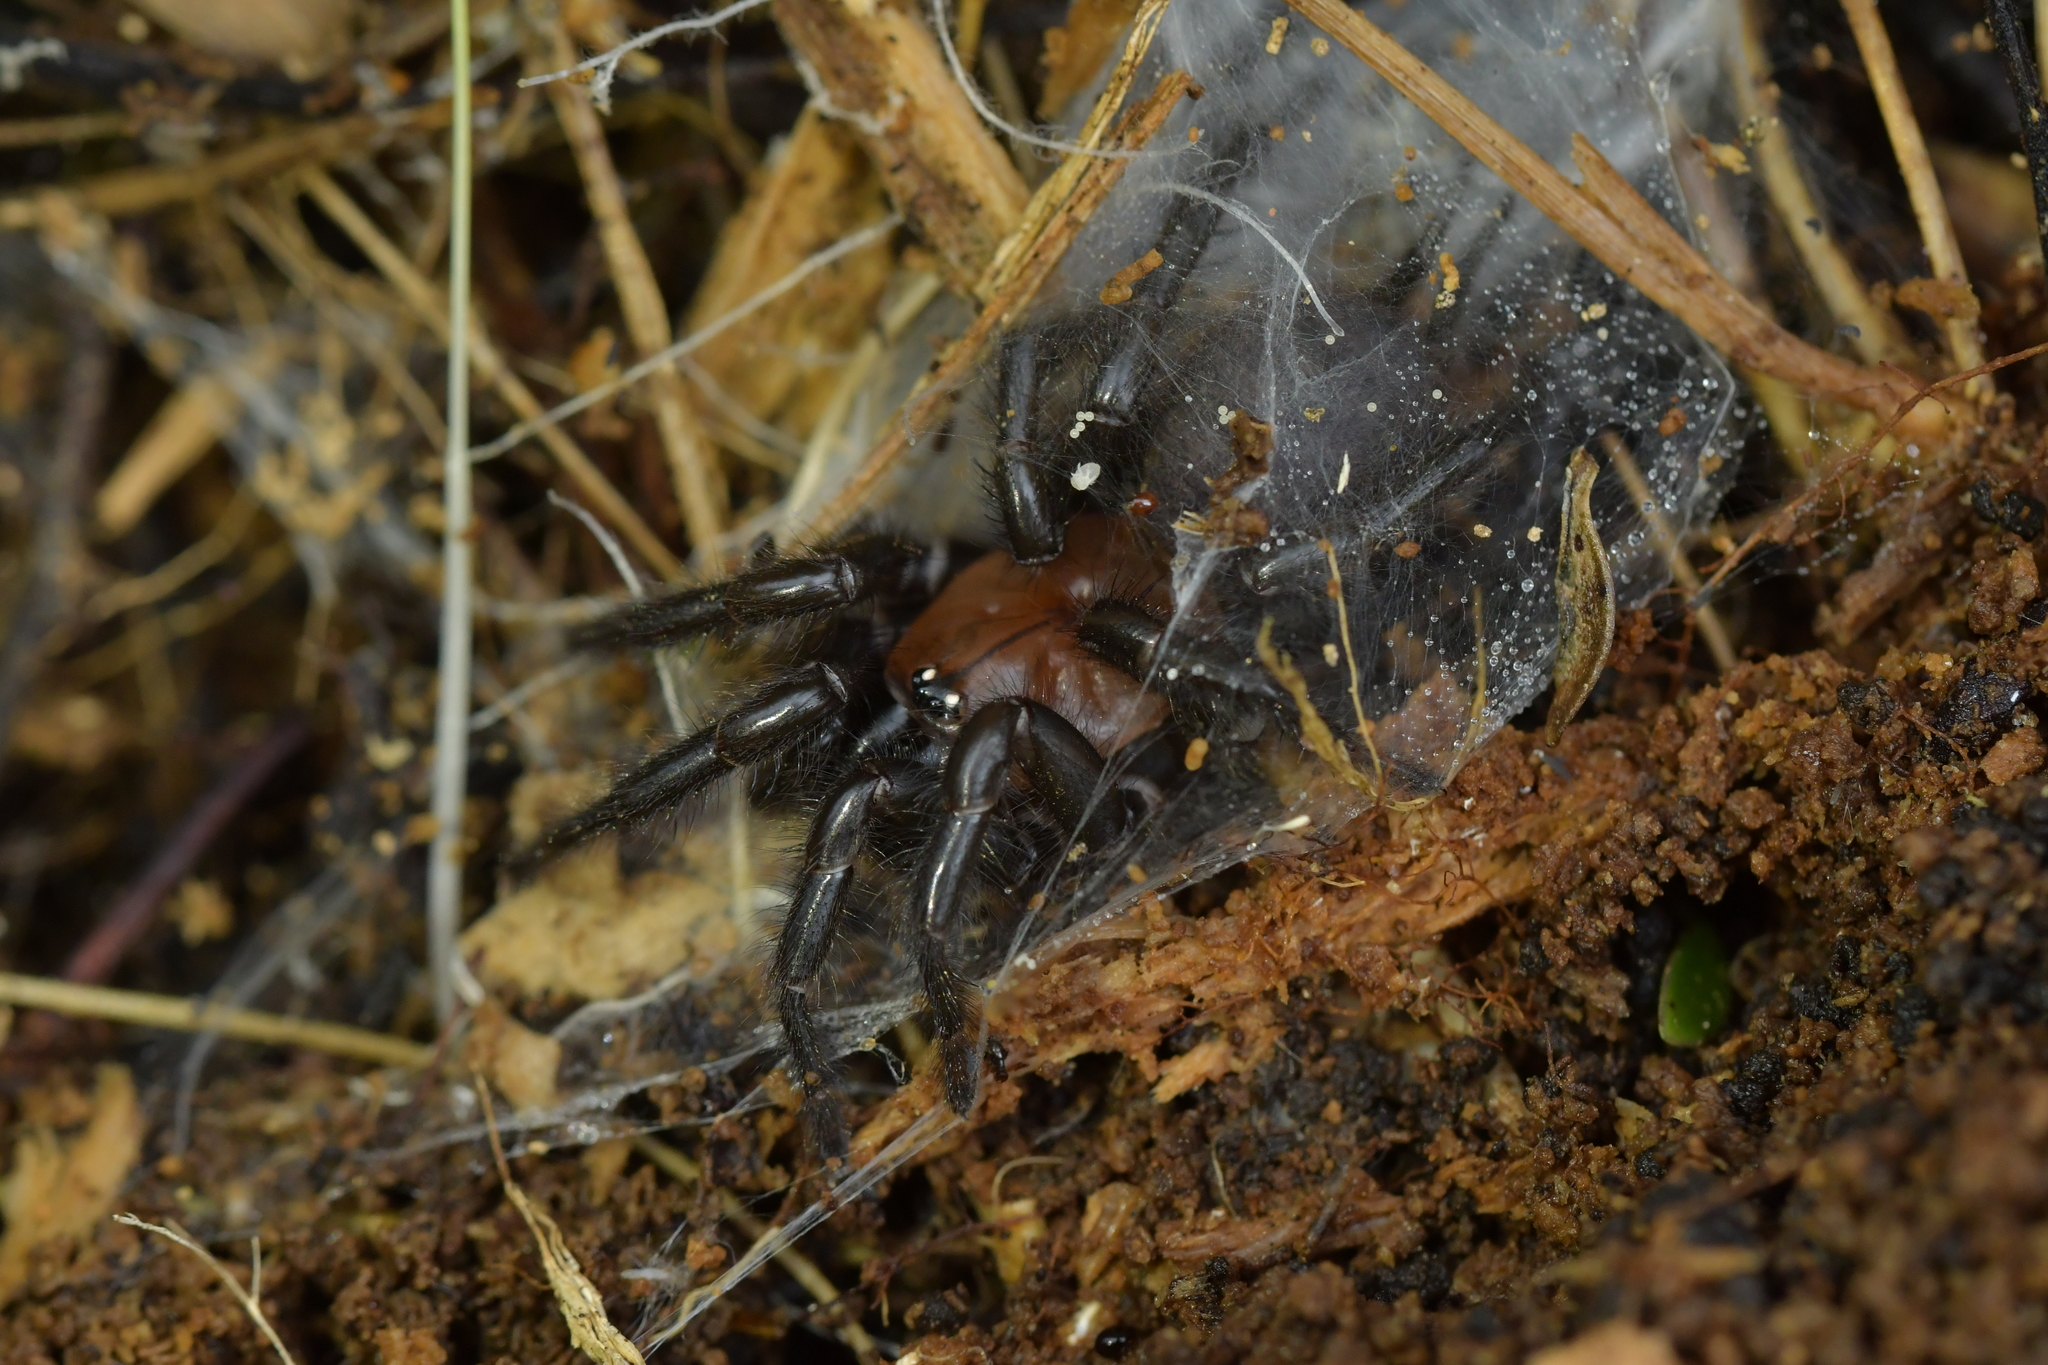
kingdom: Animalia
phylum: Arthropoda
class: Arachnida
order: Araneae
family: Porrhothelidae
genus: Porrhothele
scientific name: Porrhothele antipodiana
